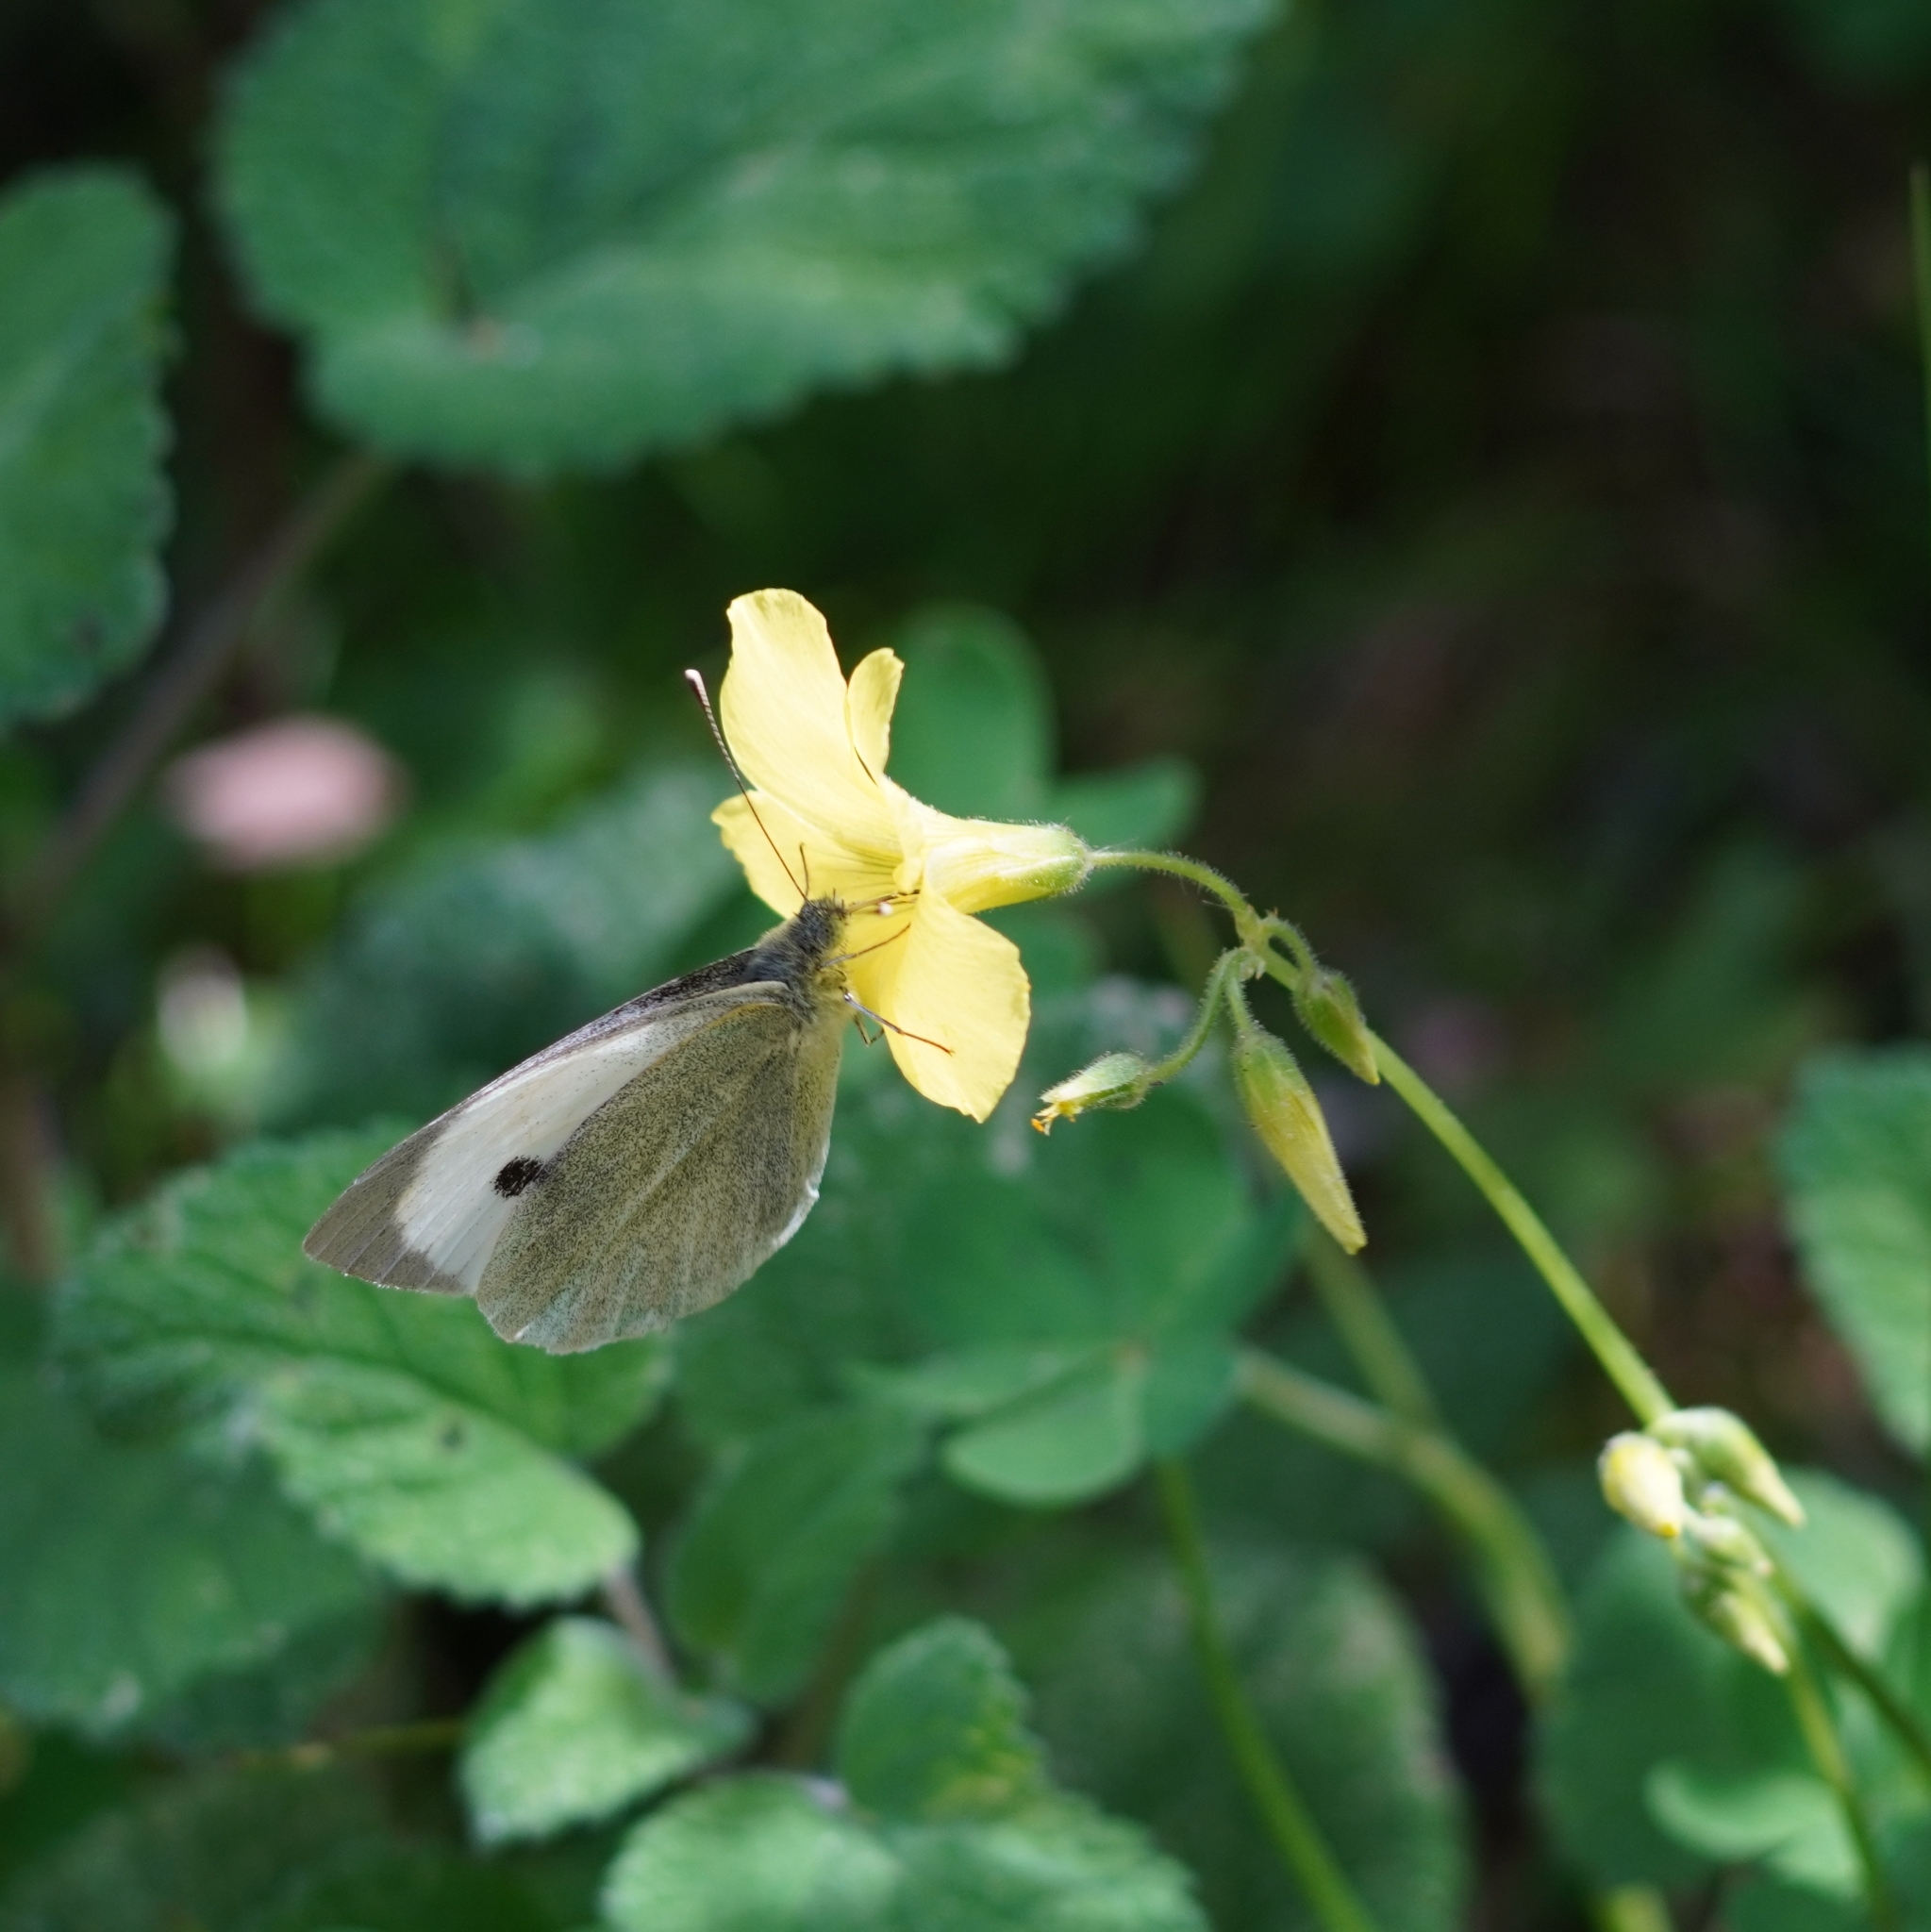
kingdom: Animalia
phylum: Arthropoda
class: Insecta
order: Lepidoptera
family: Pieridae
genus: Pieris
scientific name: Pieris brassicae
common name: Large white
